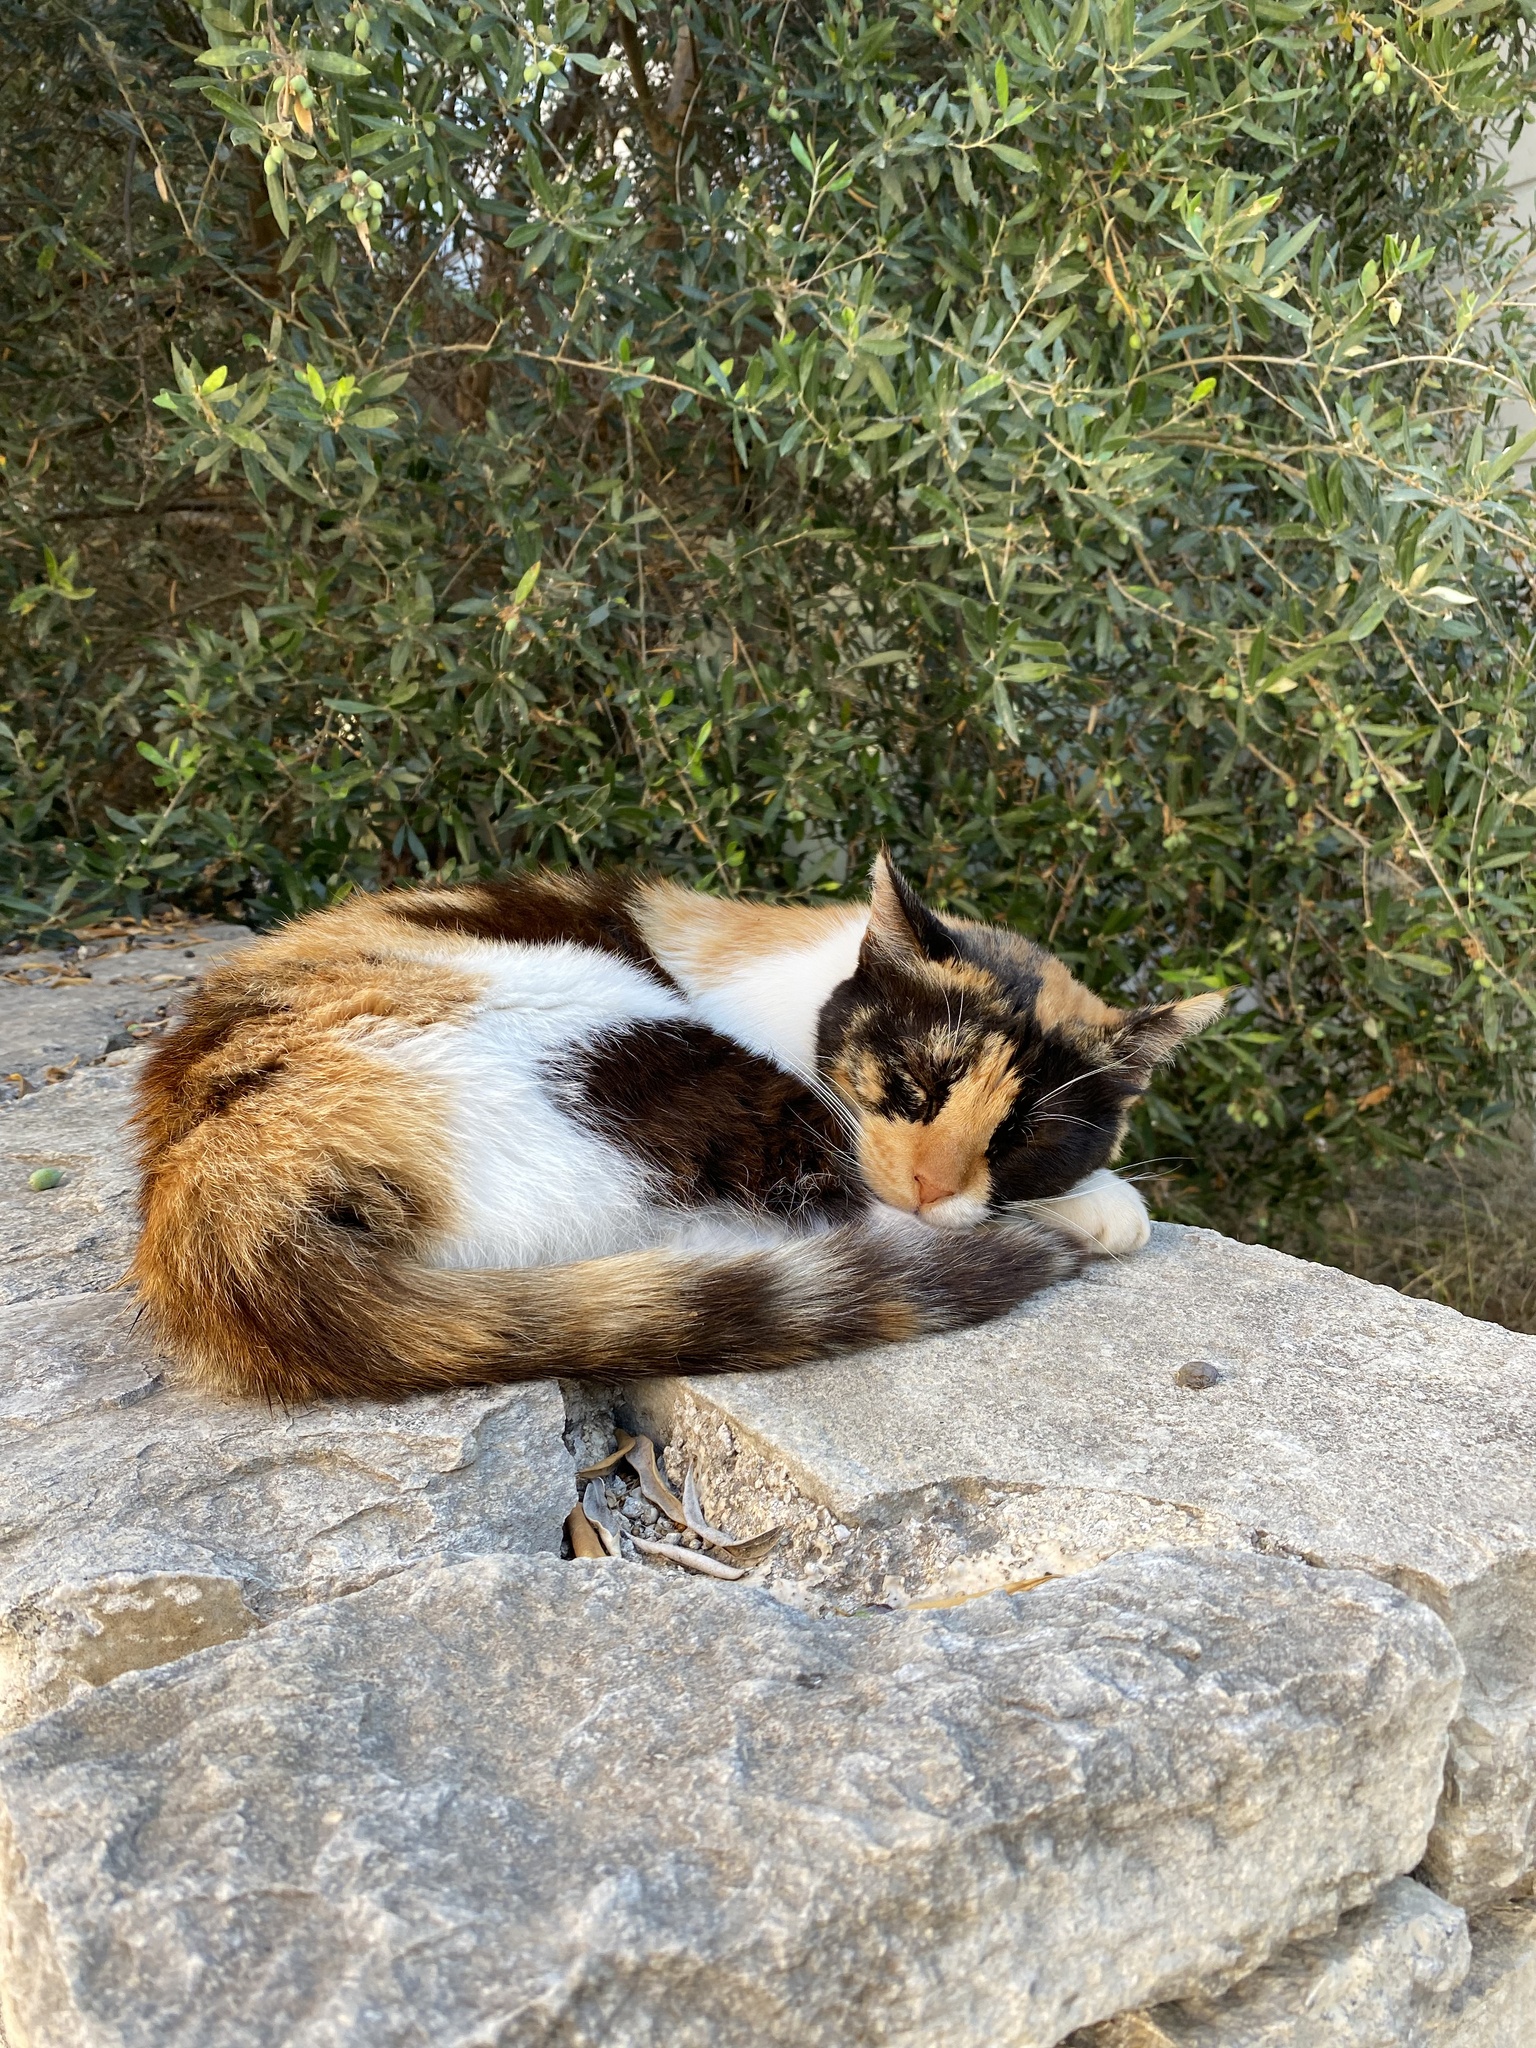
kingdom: Animalia
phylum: Chordata
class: Mammalia
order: Carnivora
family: Felidae
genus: Felis
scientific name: Felis catus
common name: Domestic cat
